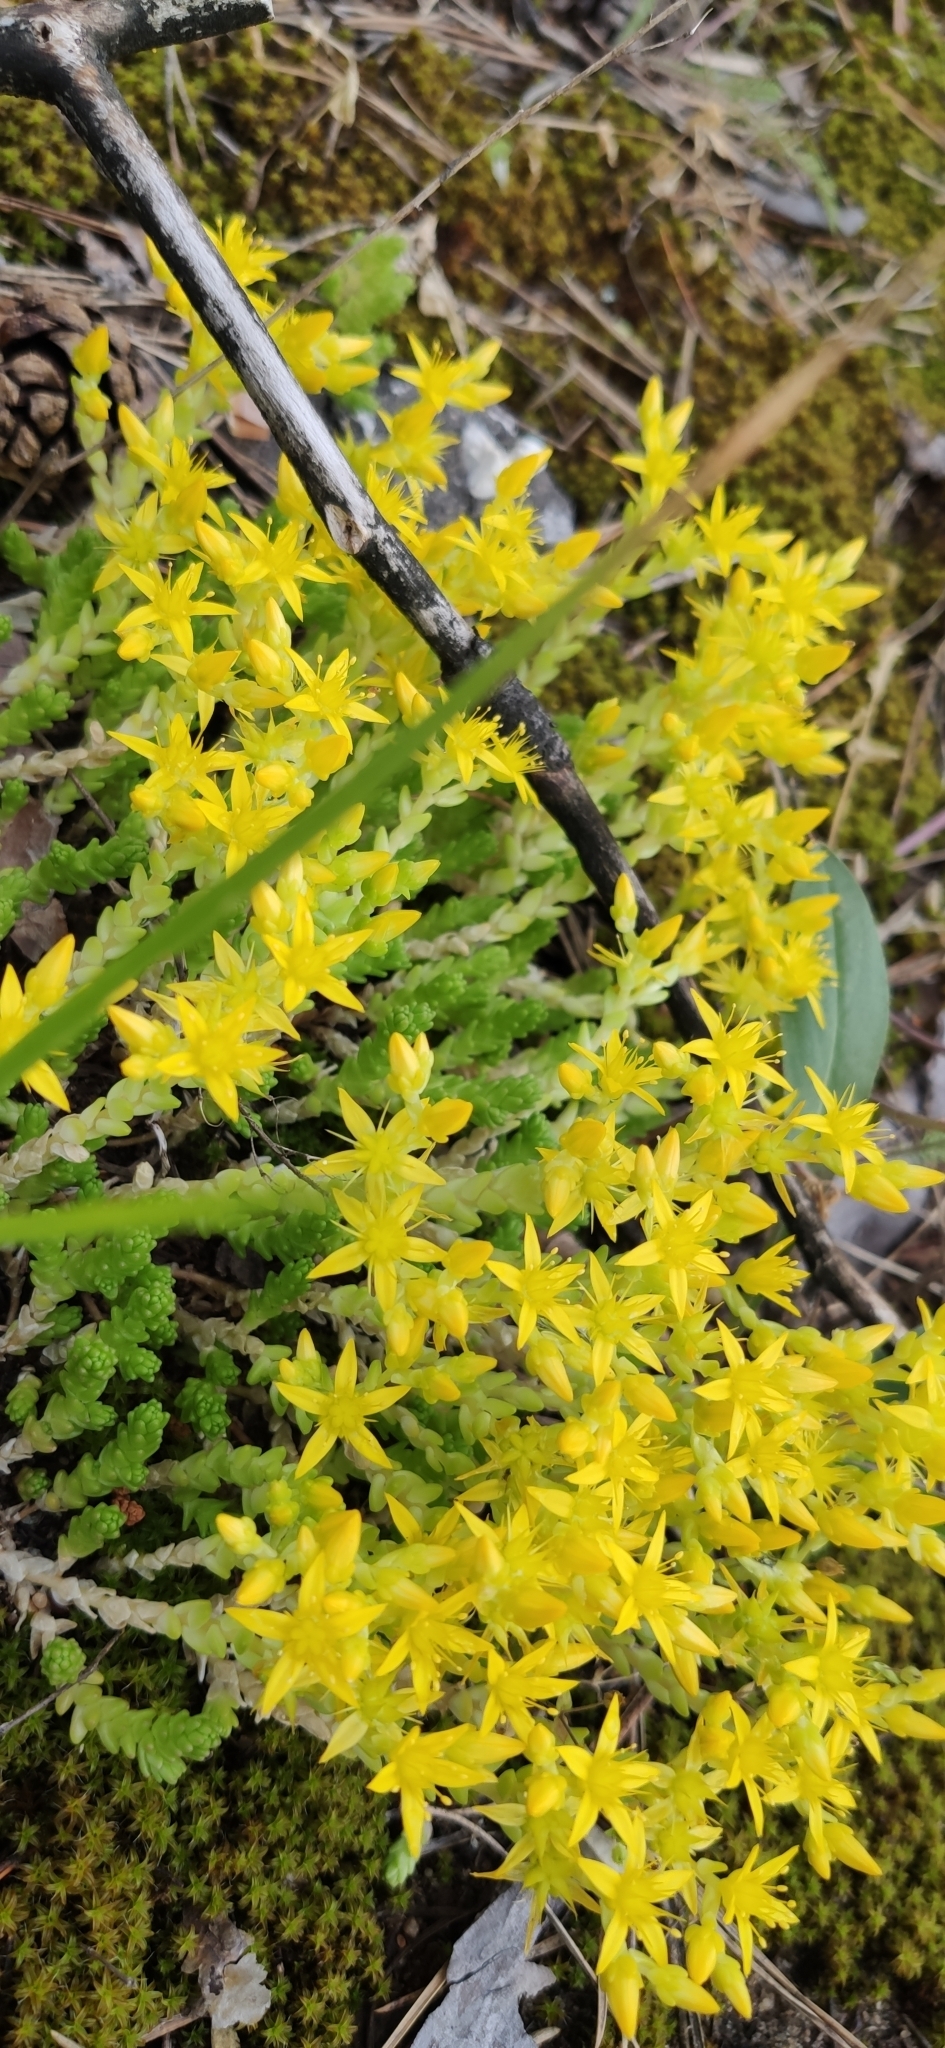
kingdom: Plantae
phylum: Tracheophyta
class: Magnoliopsida
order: Saxifragales
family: Crassulaceae
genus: Sedum
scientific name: Sedum acre
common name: Biting stonecrop
